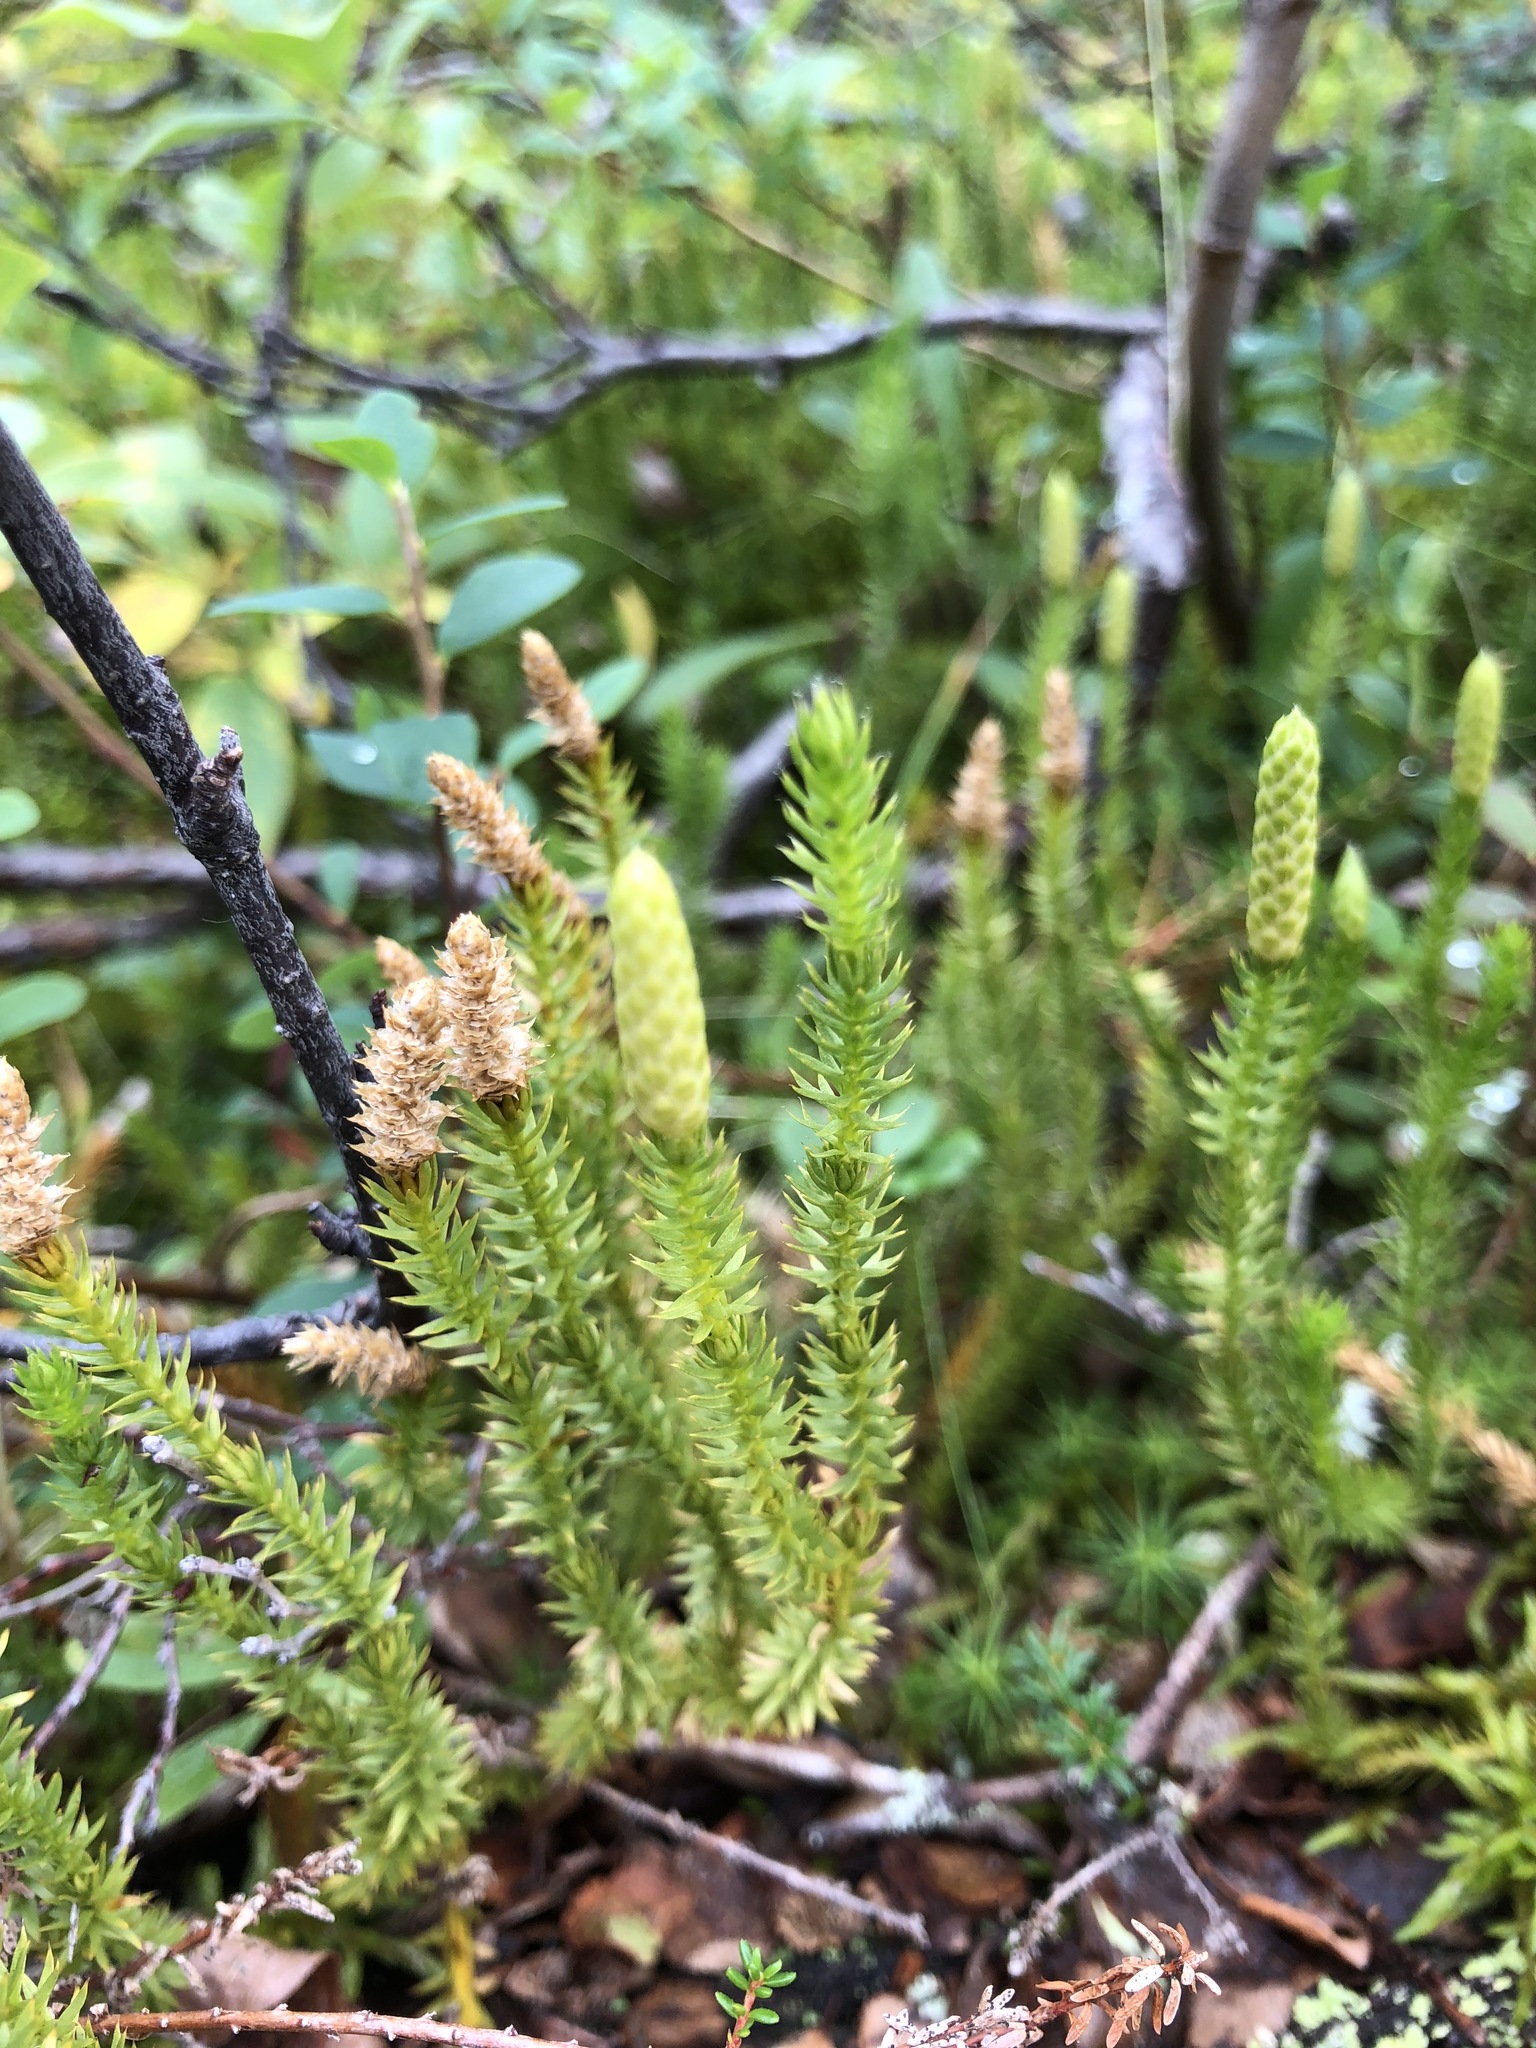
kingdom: Plantae
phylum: Tracheophyta
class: Lycopodiopsida
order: Lycopodiales
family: Lycopodiaceae
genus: Spinulum
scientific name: Spinulum annotinum
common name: Interrupted club-moss
